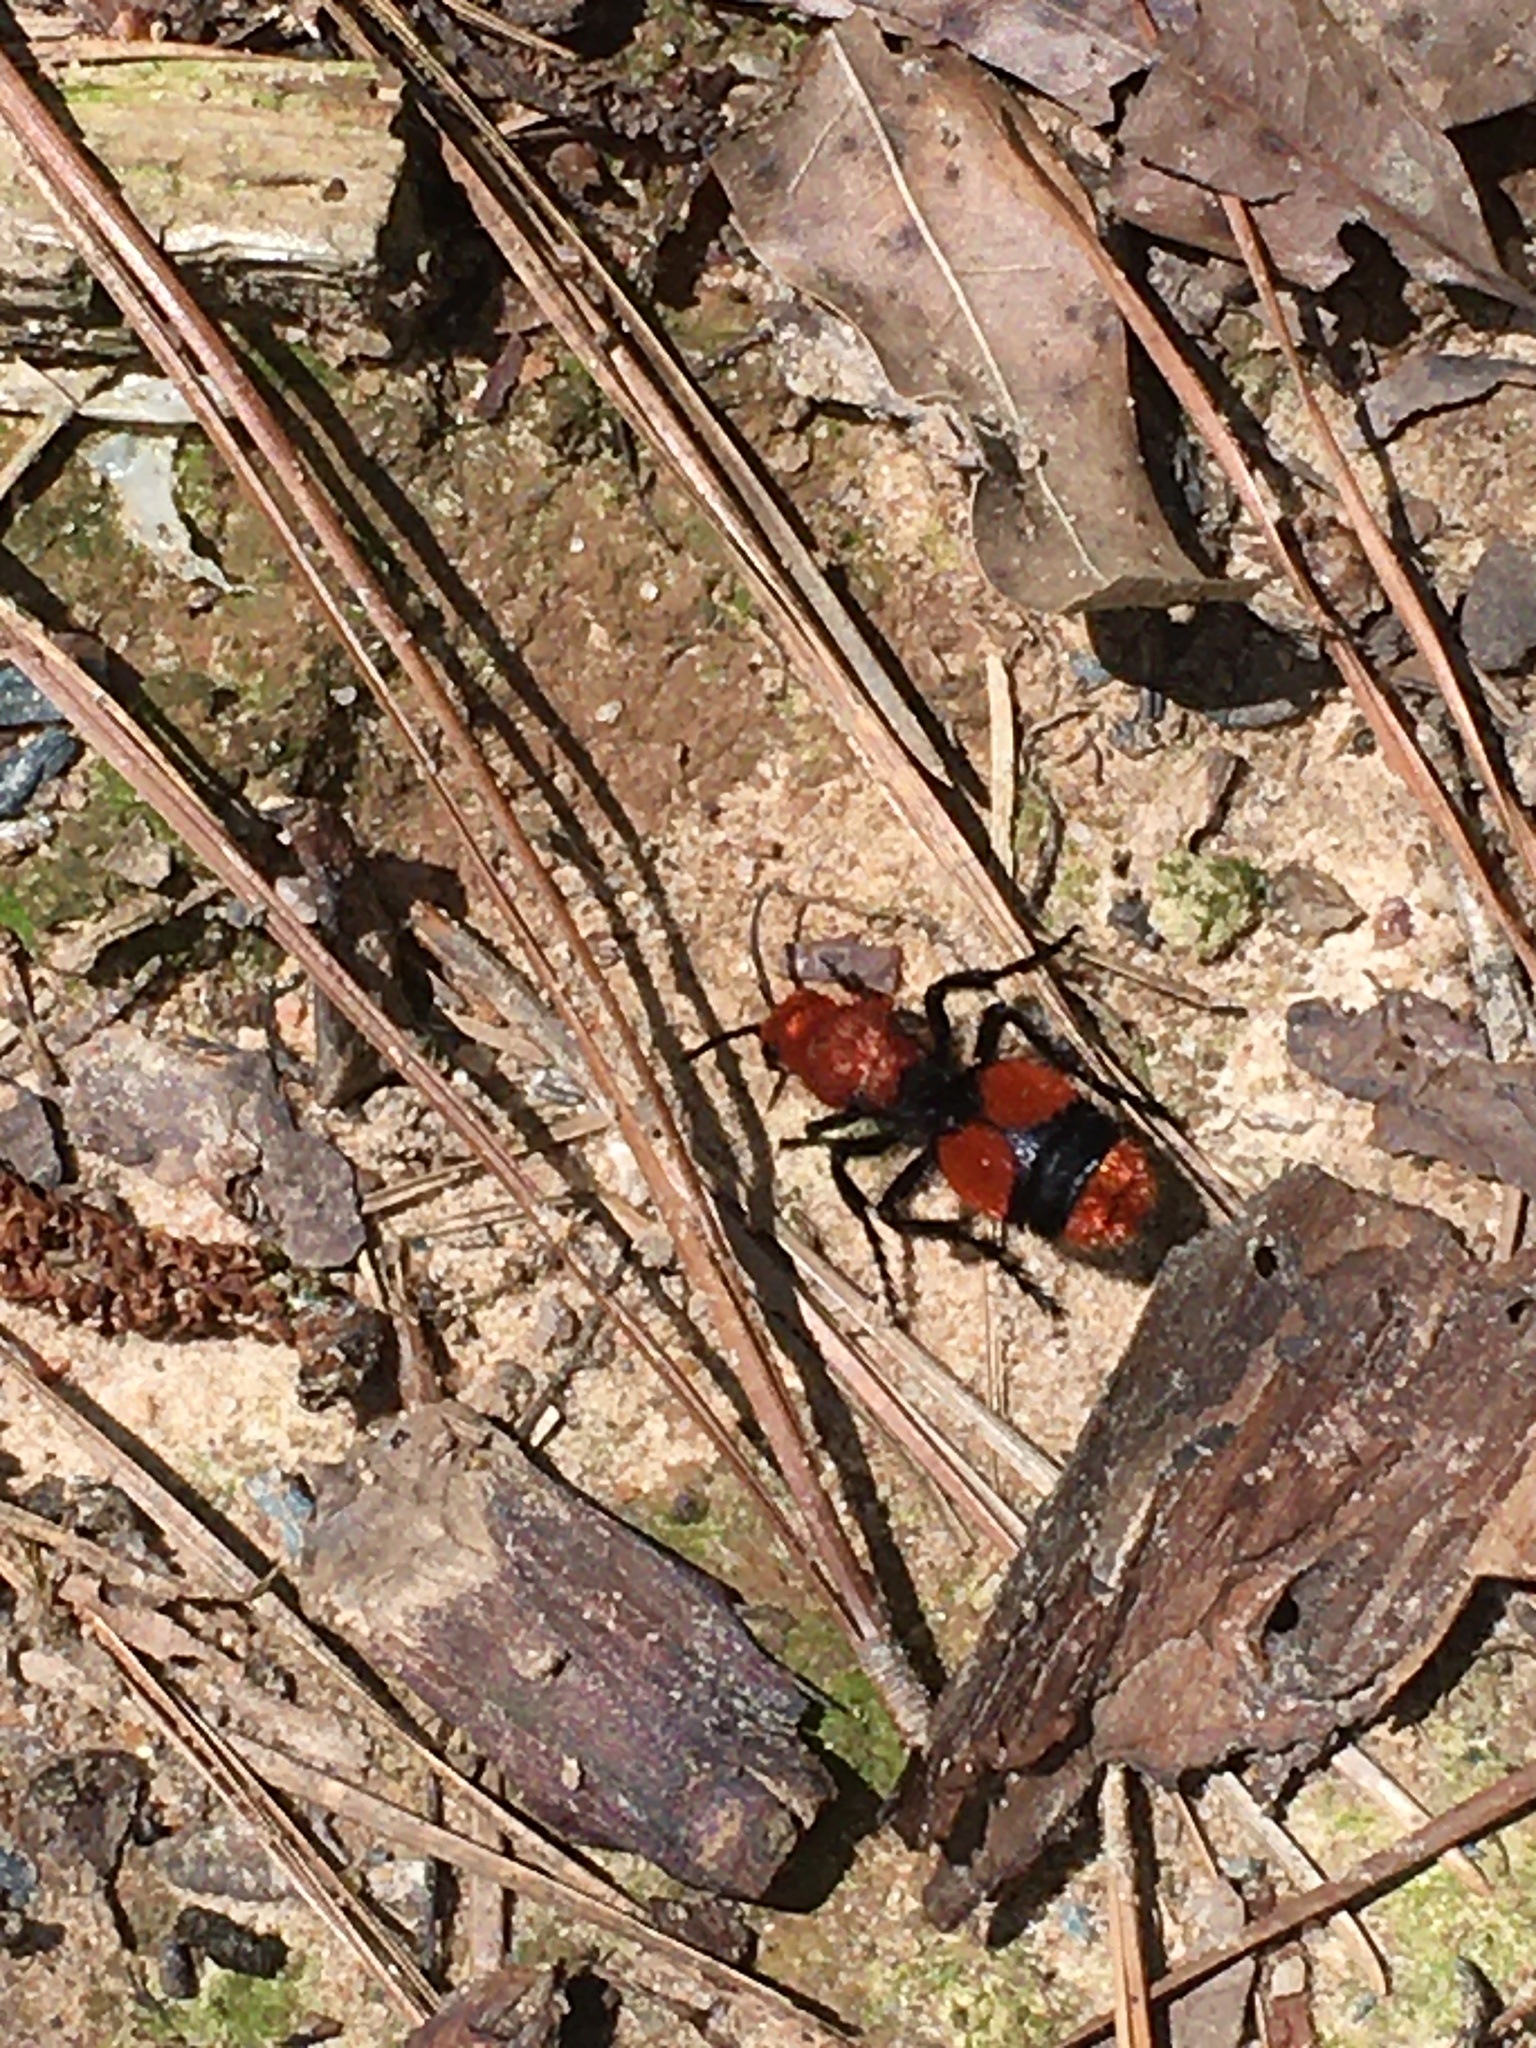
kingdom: Animalia
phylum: Arthropoda
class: Insecta
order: Hymenoptera
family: Mutillidae
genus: Dasymutilla
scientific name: Dasymutilla occidentalis
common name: Common eastern velvet ant
